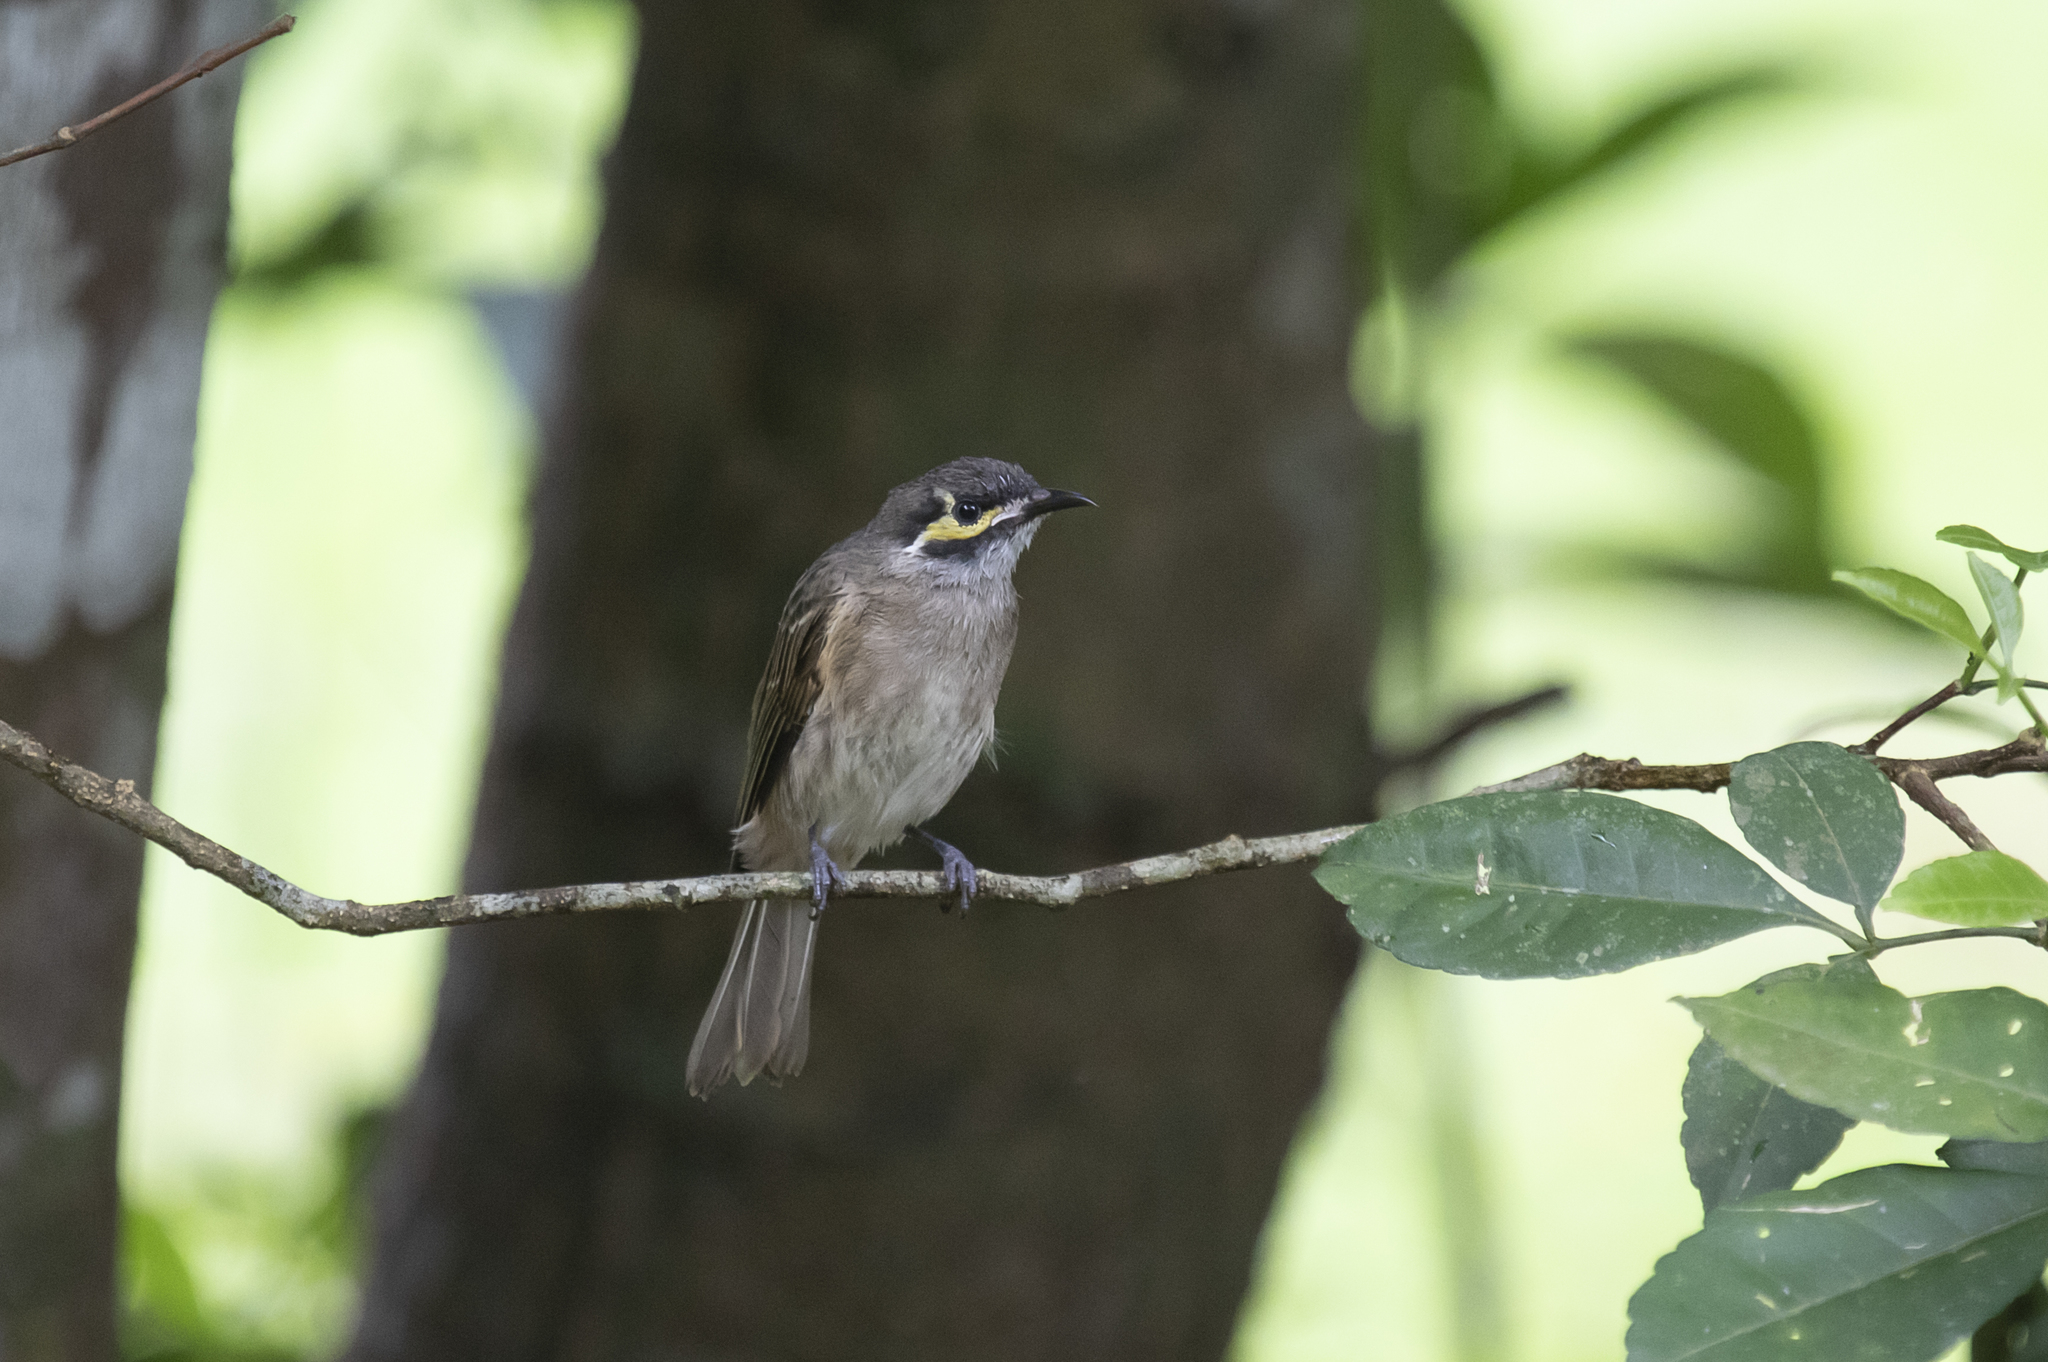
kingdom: Animalia
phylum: Chordata
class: Aves
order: Passeriformes
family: Meliphagidae
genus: Caligavis
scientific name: Caligavis chrysops
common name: Yellow-faced honeyeater
